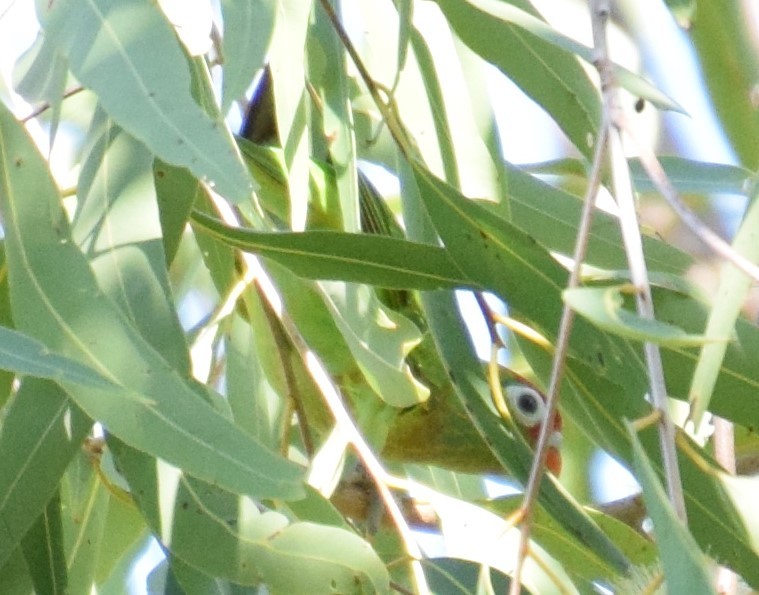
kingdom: Animalia
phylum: Chordata
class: Aves
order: Psittaciformes
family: Psittacidae
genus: Psitteuteles
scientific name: Psitteuteles versicolor
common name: Varied lorikeet
